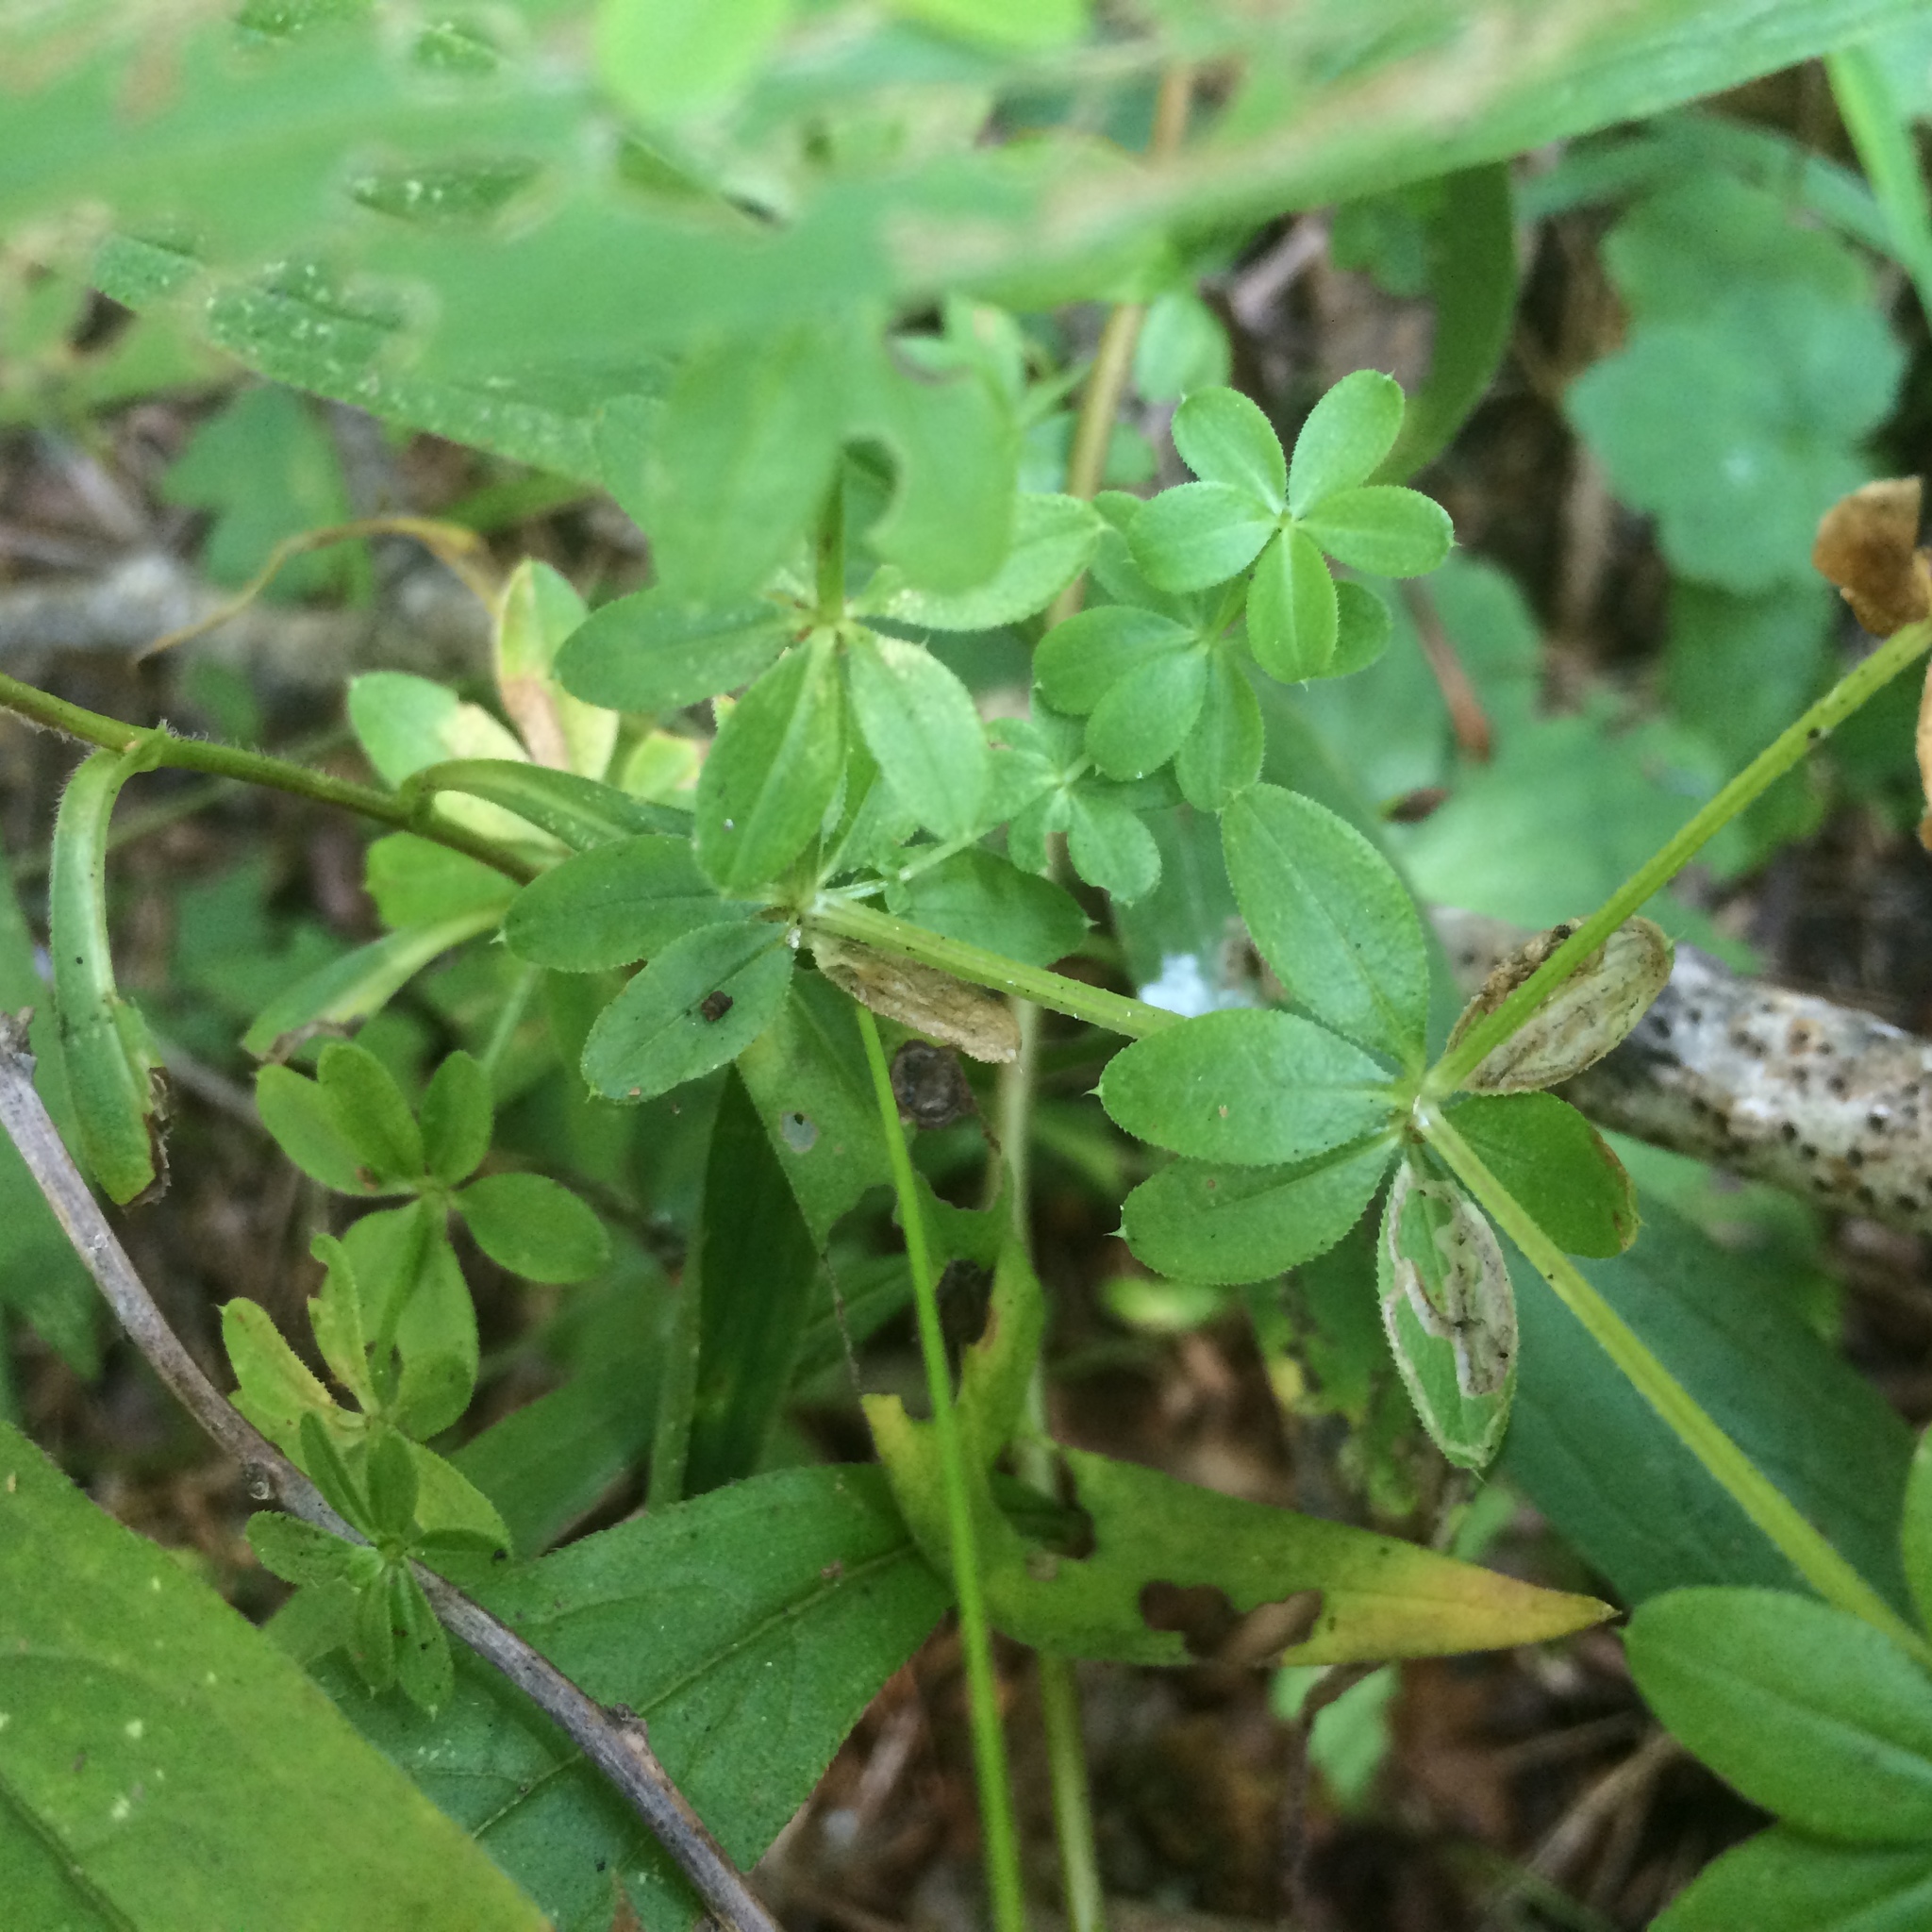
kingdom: Plantae
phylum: Tracheophyta
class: Magnoliopsida
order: Gentianales
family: Rubiaceae
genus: Galium
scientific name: Galium asprellum
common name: Rough bedstraw
